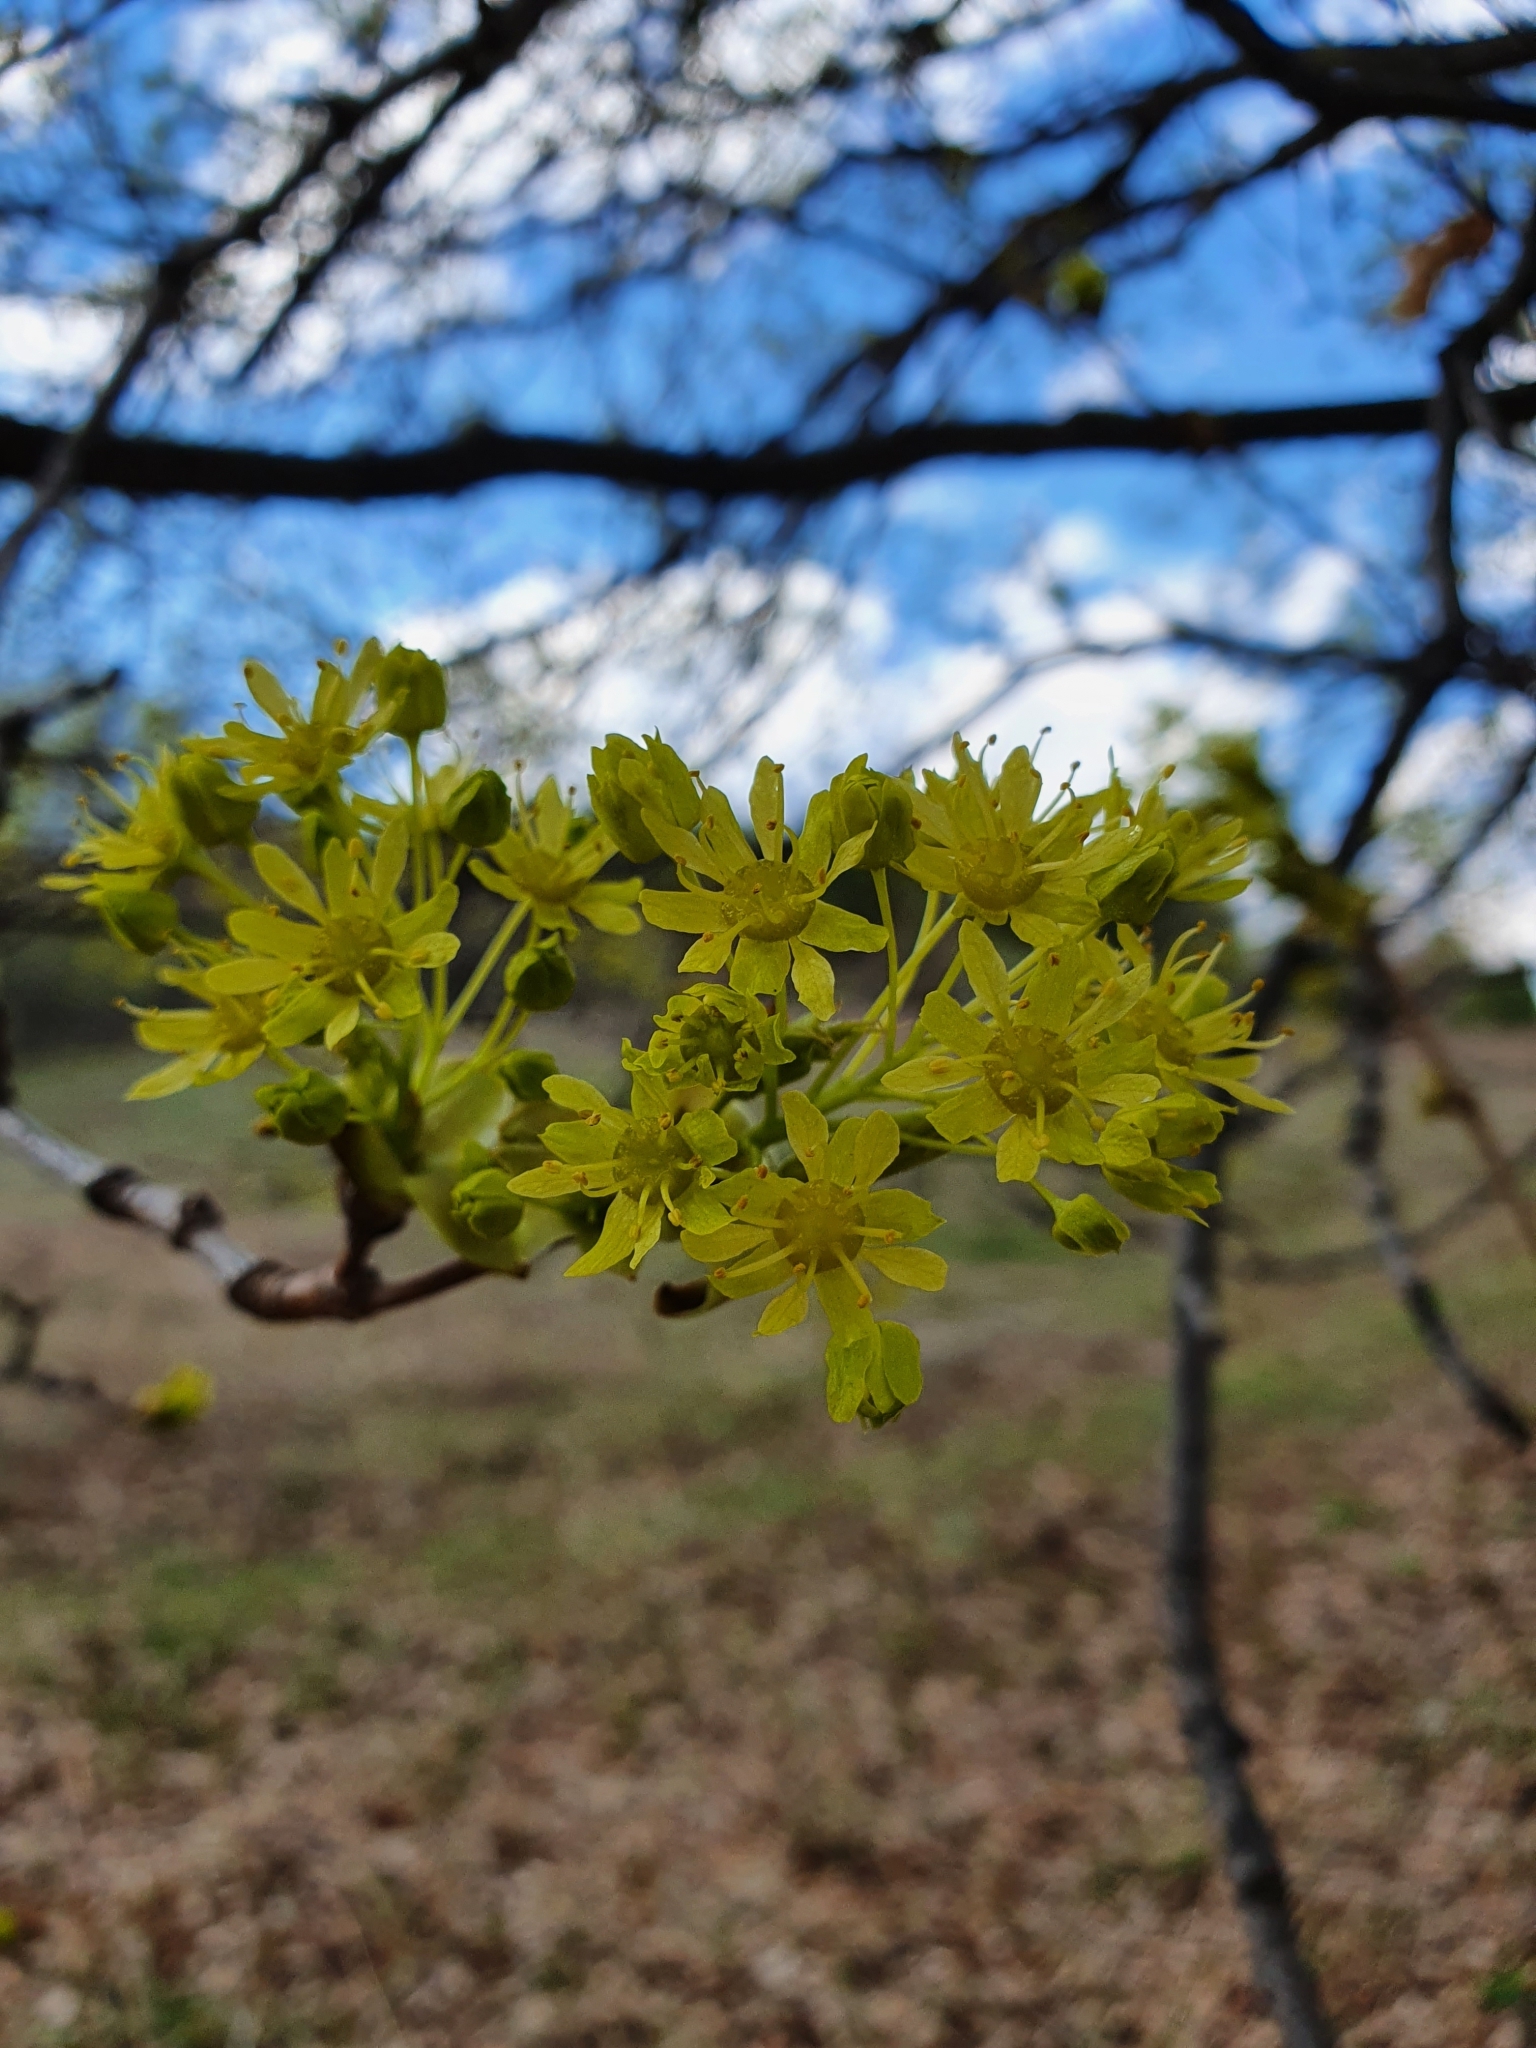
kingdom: Plantae
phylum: Tracheophyta
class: Magnoliopsida
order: Sapindales
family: Sapindaceae
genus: Acer
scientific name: Acer platanoides
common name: Norway maple
